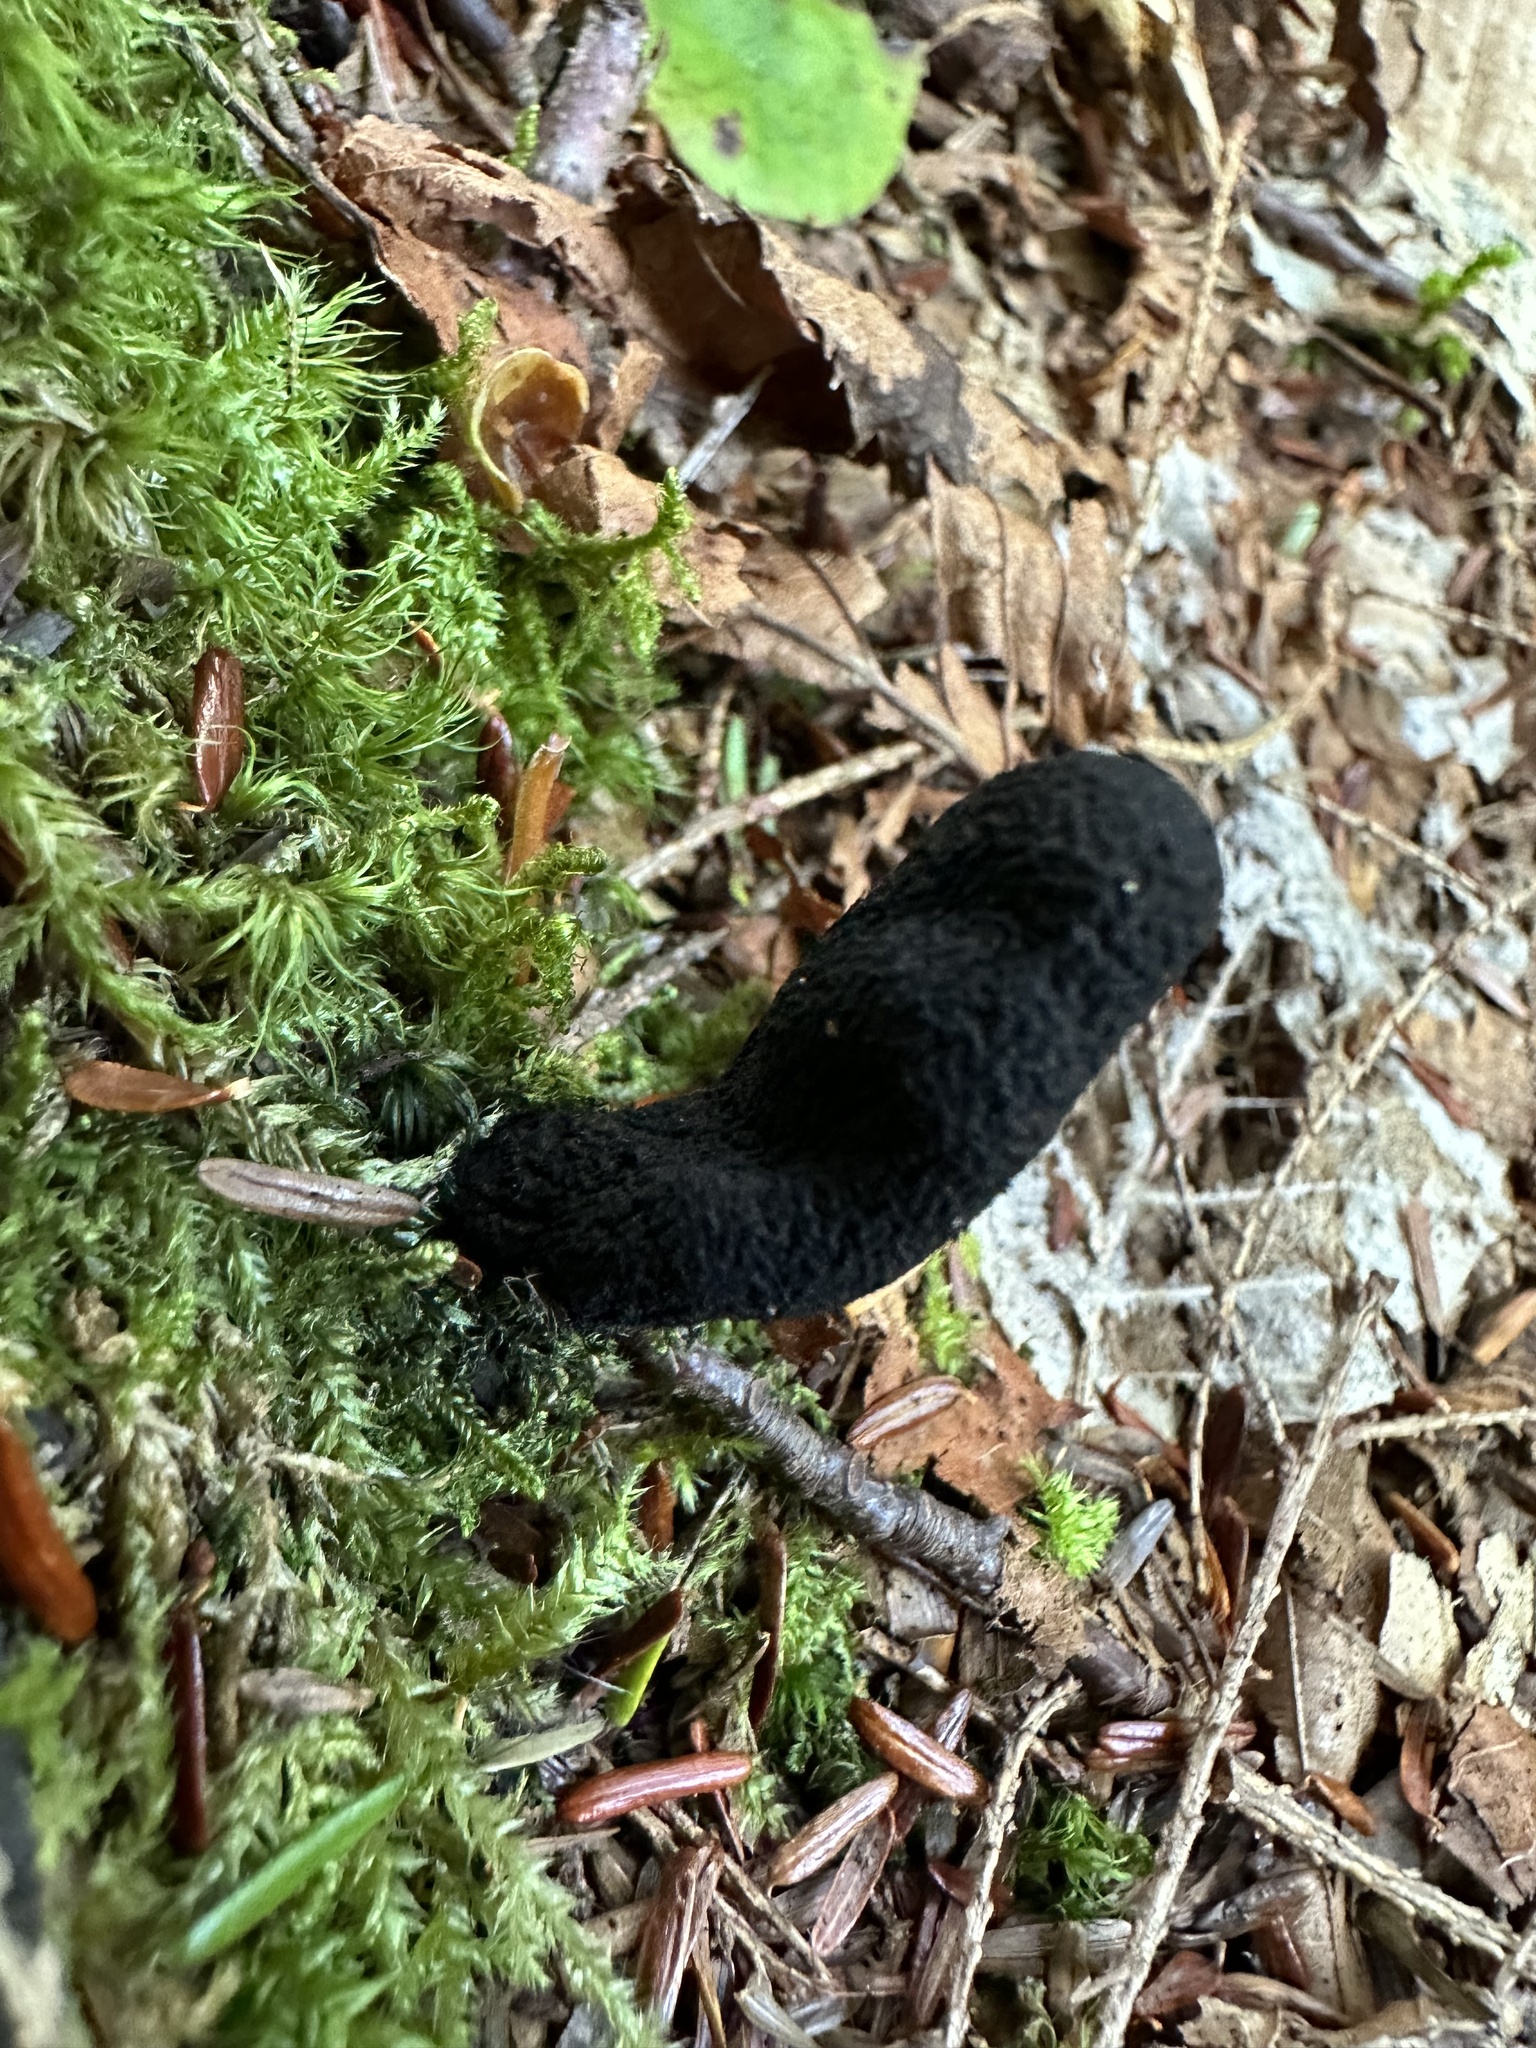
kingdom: Fungi
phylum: Ascomycota
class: Sordariomycetes
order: Xylariales
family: Xylariaceae
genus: Xylaria
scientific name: Xylaria polymorpha
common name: Dead man's fingers
